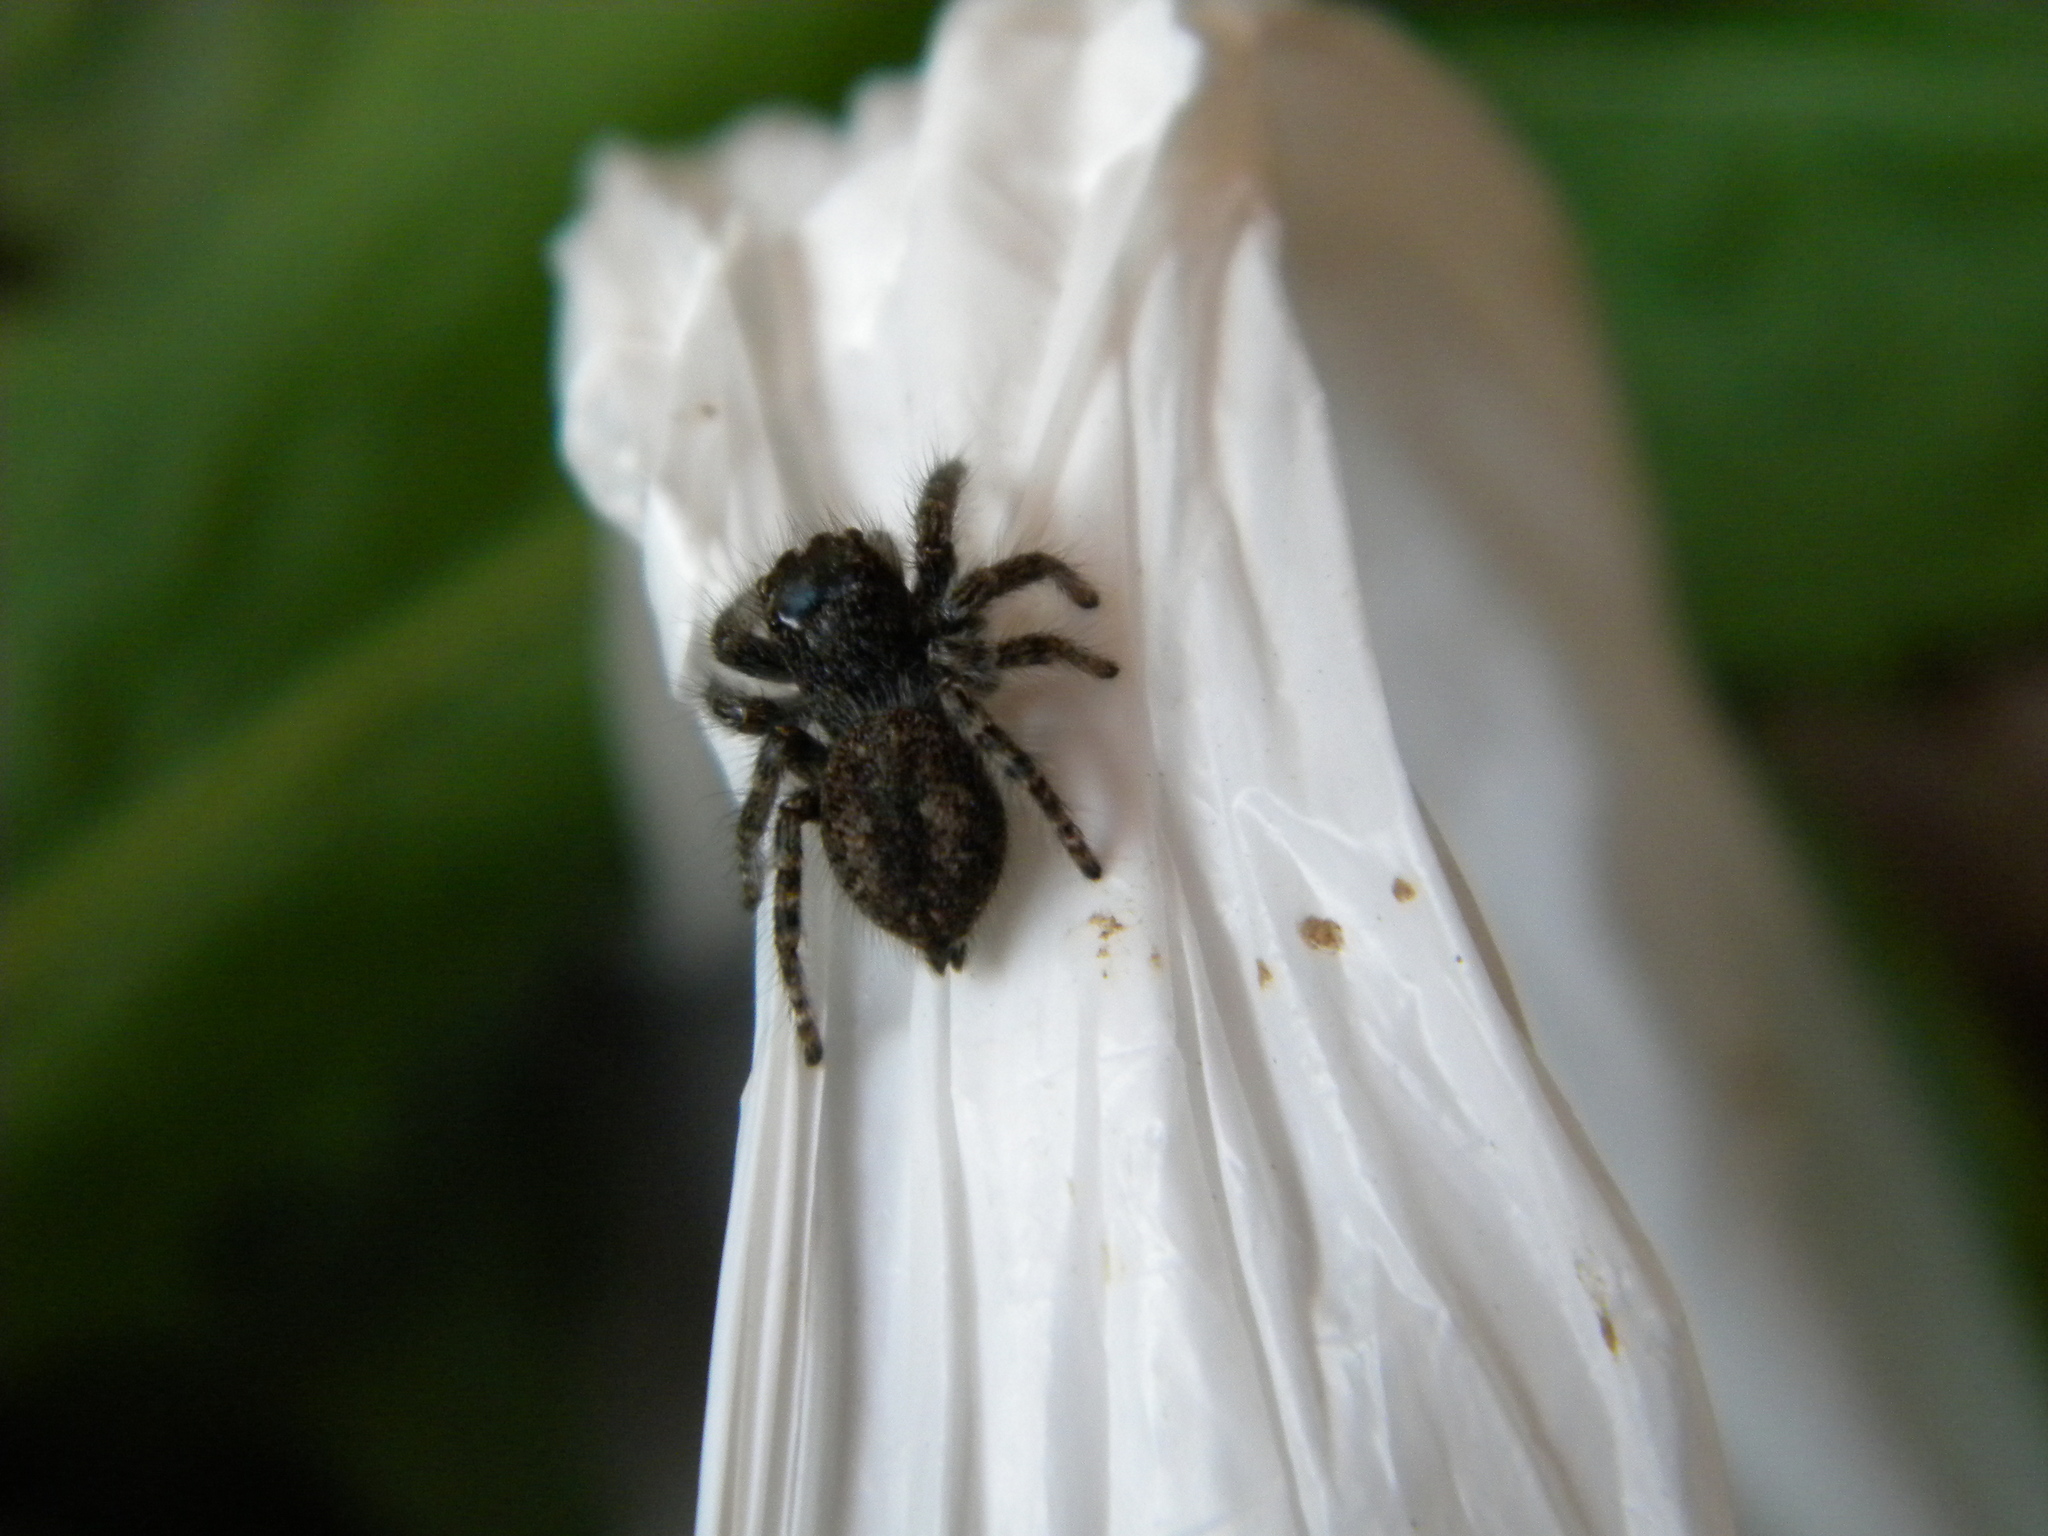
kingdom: Animalia
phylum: Arthropoda
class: Arachnida
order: Araneae
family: Salticidae
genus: Philaeus
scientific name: Philaeus chrysops
